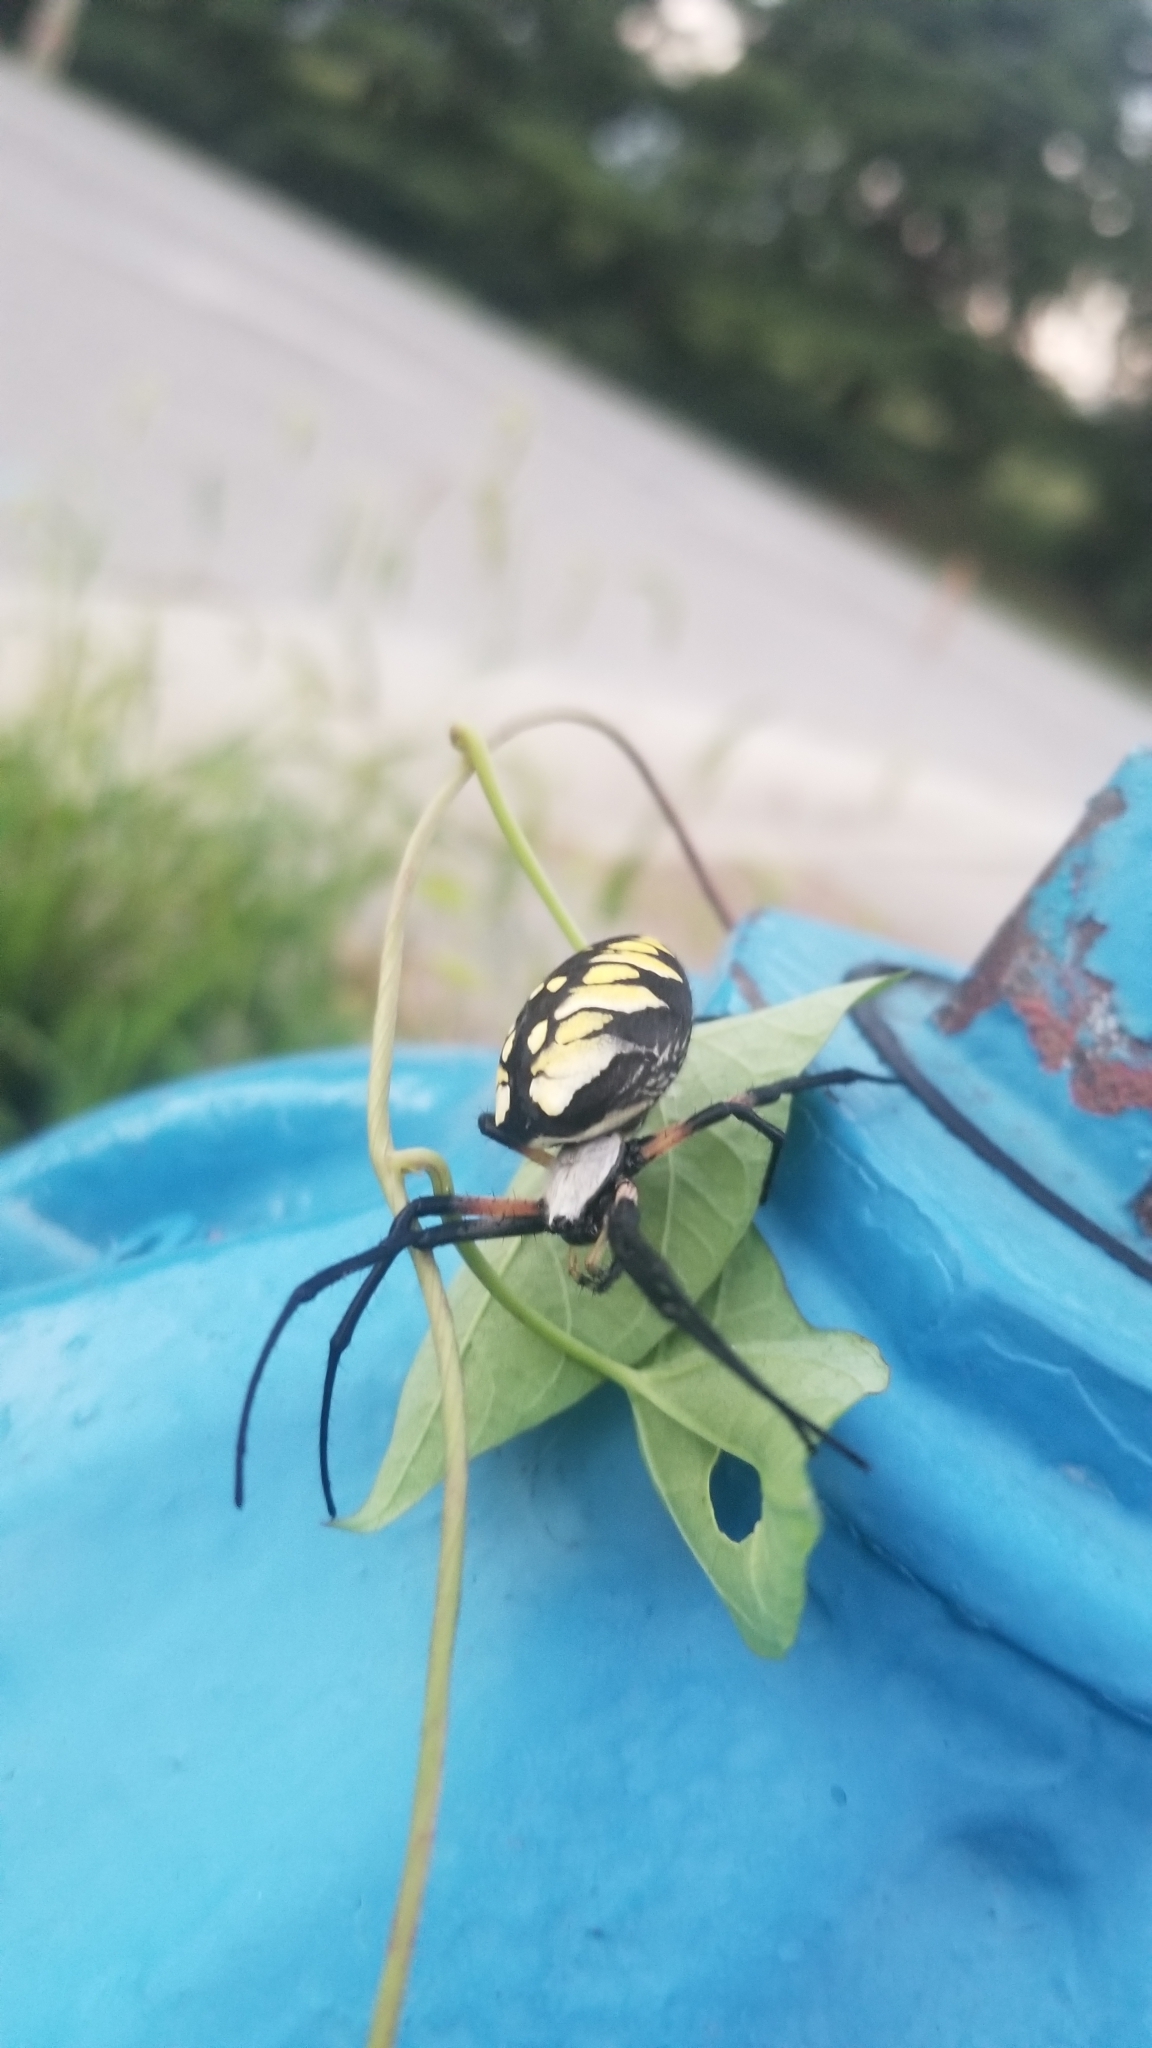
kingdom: Animalia
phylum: Arthropoda
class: Arachnida
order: Araneae
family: Araneidae
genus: Argiope
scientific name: Argiope aurantia
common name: Orb weavers
